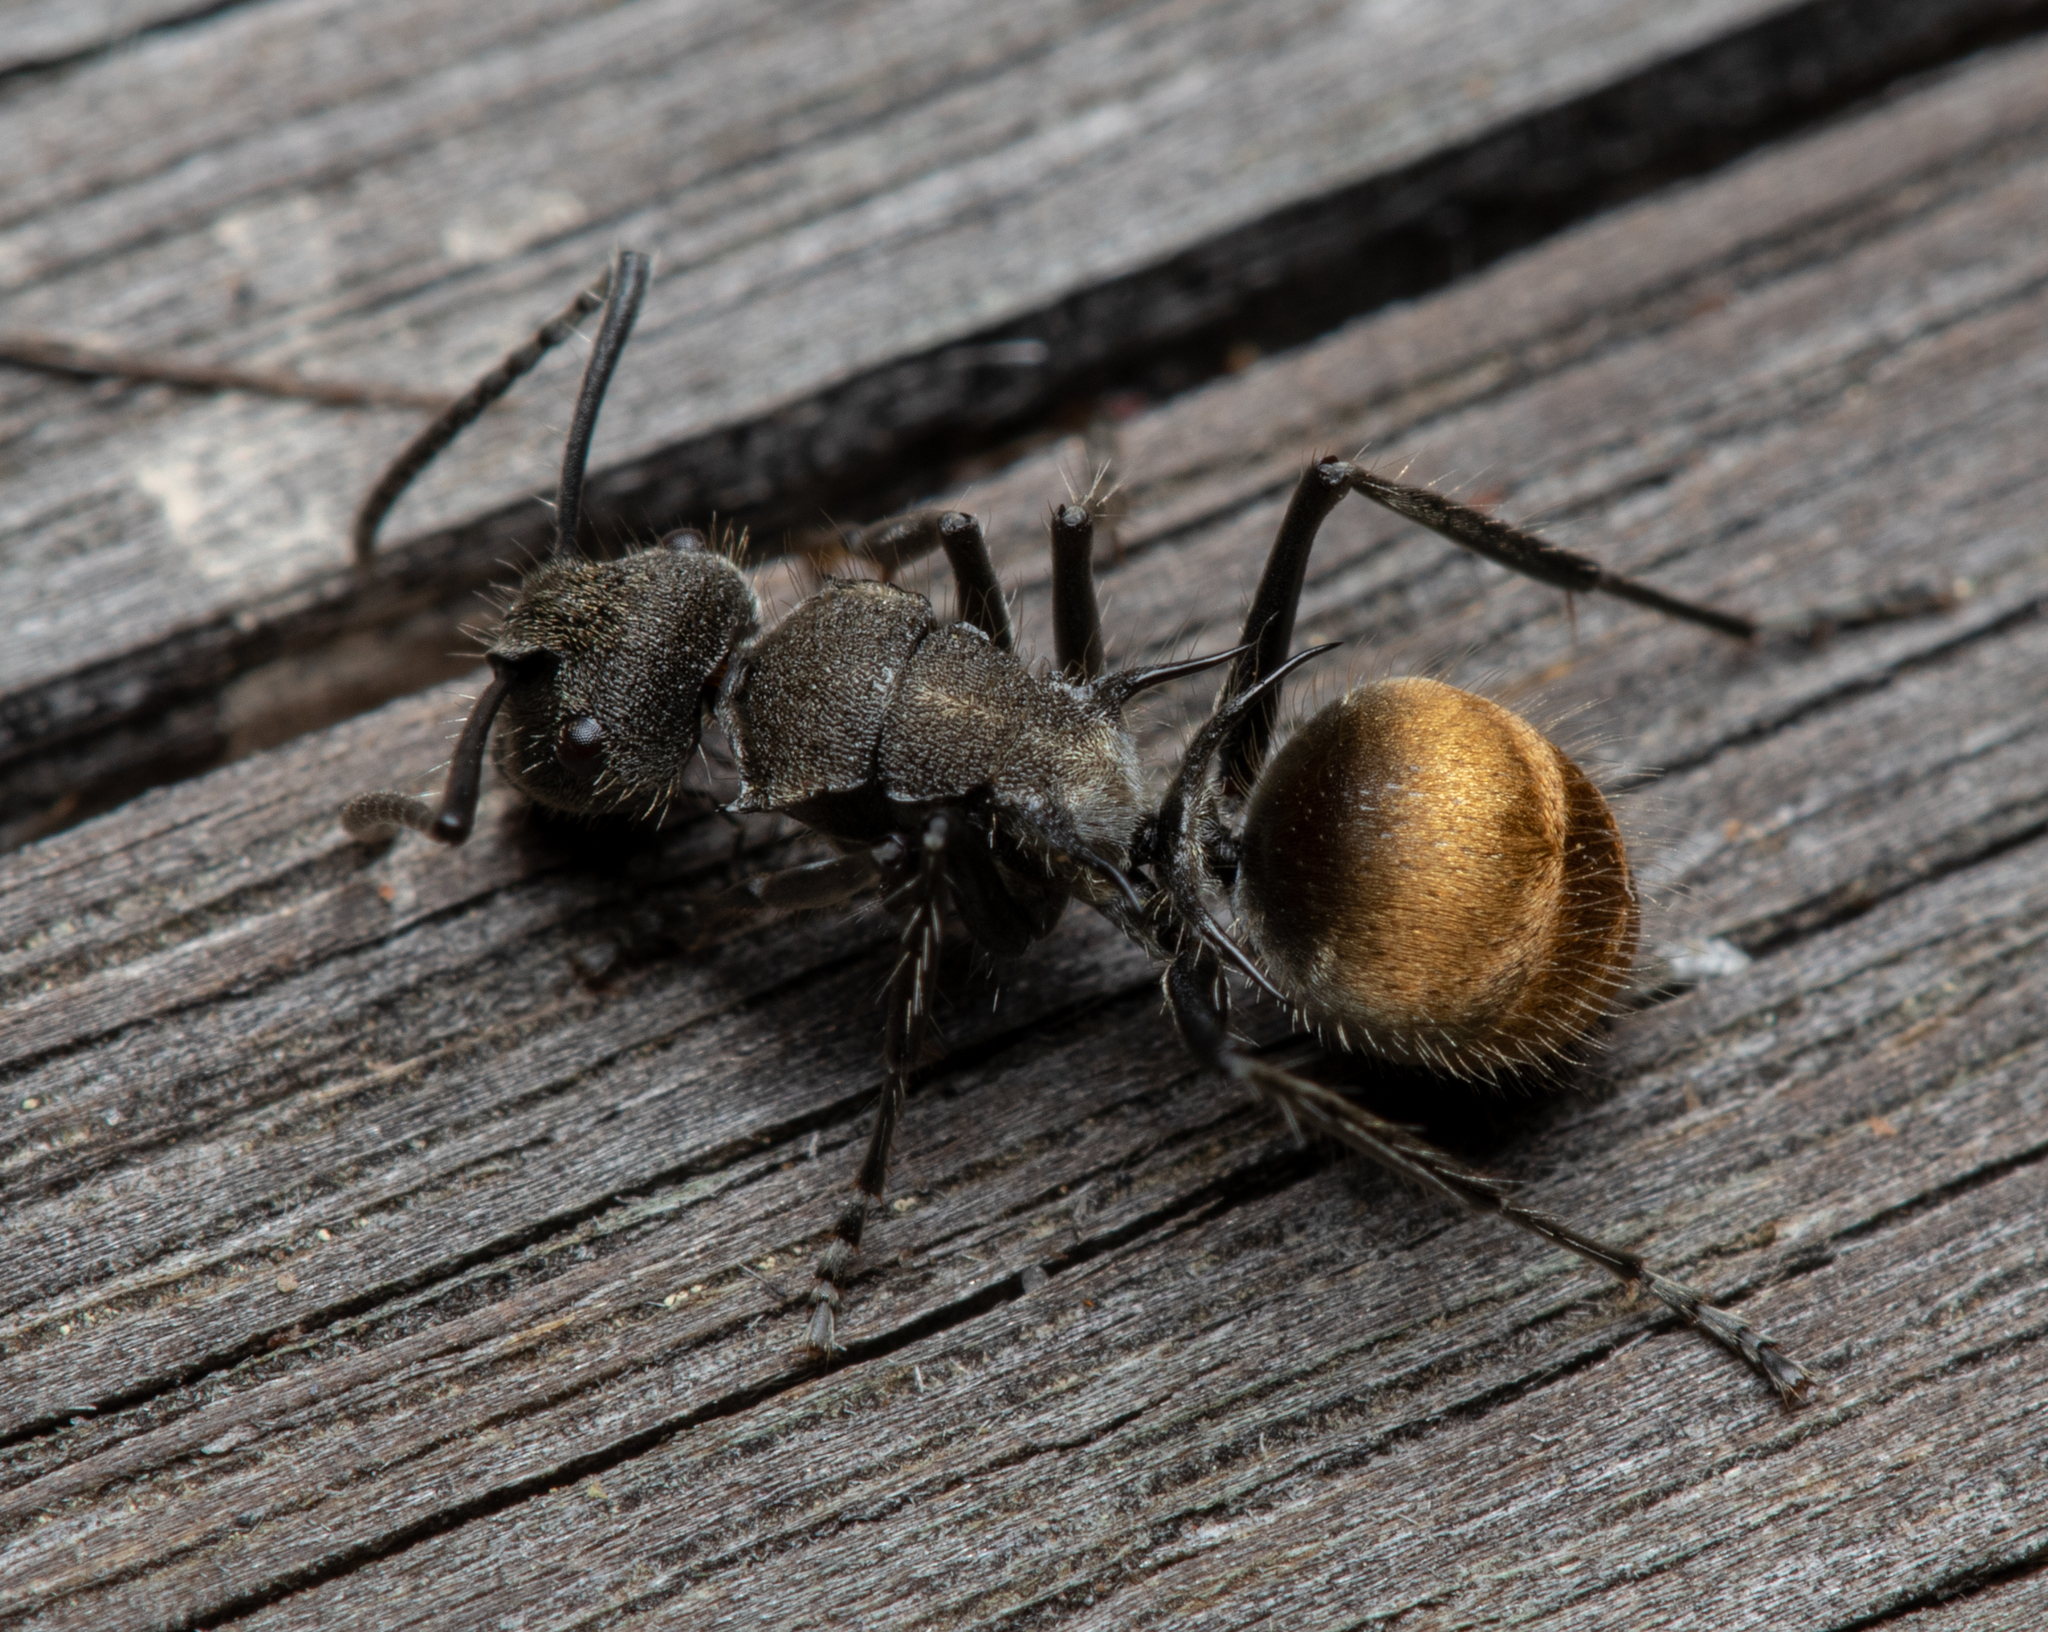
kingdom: Animalia
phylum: Arthropoda
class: Insecta
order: Hymenoptera
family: Formicidae
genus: Polyrhachis
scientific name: Polyrhachis aurea
